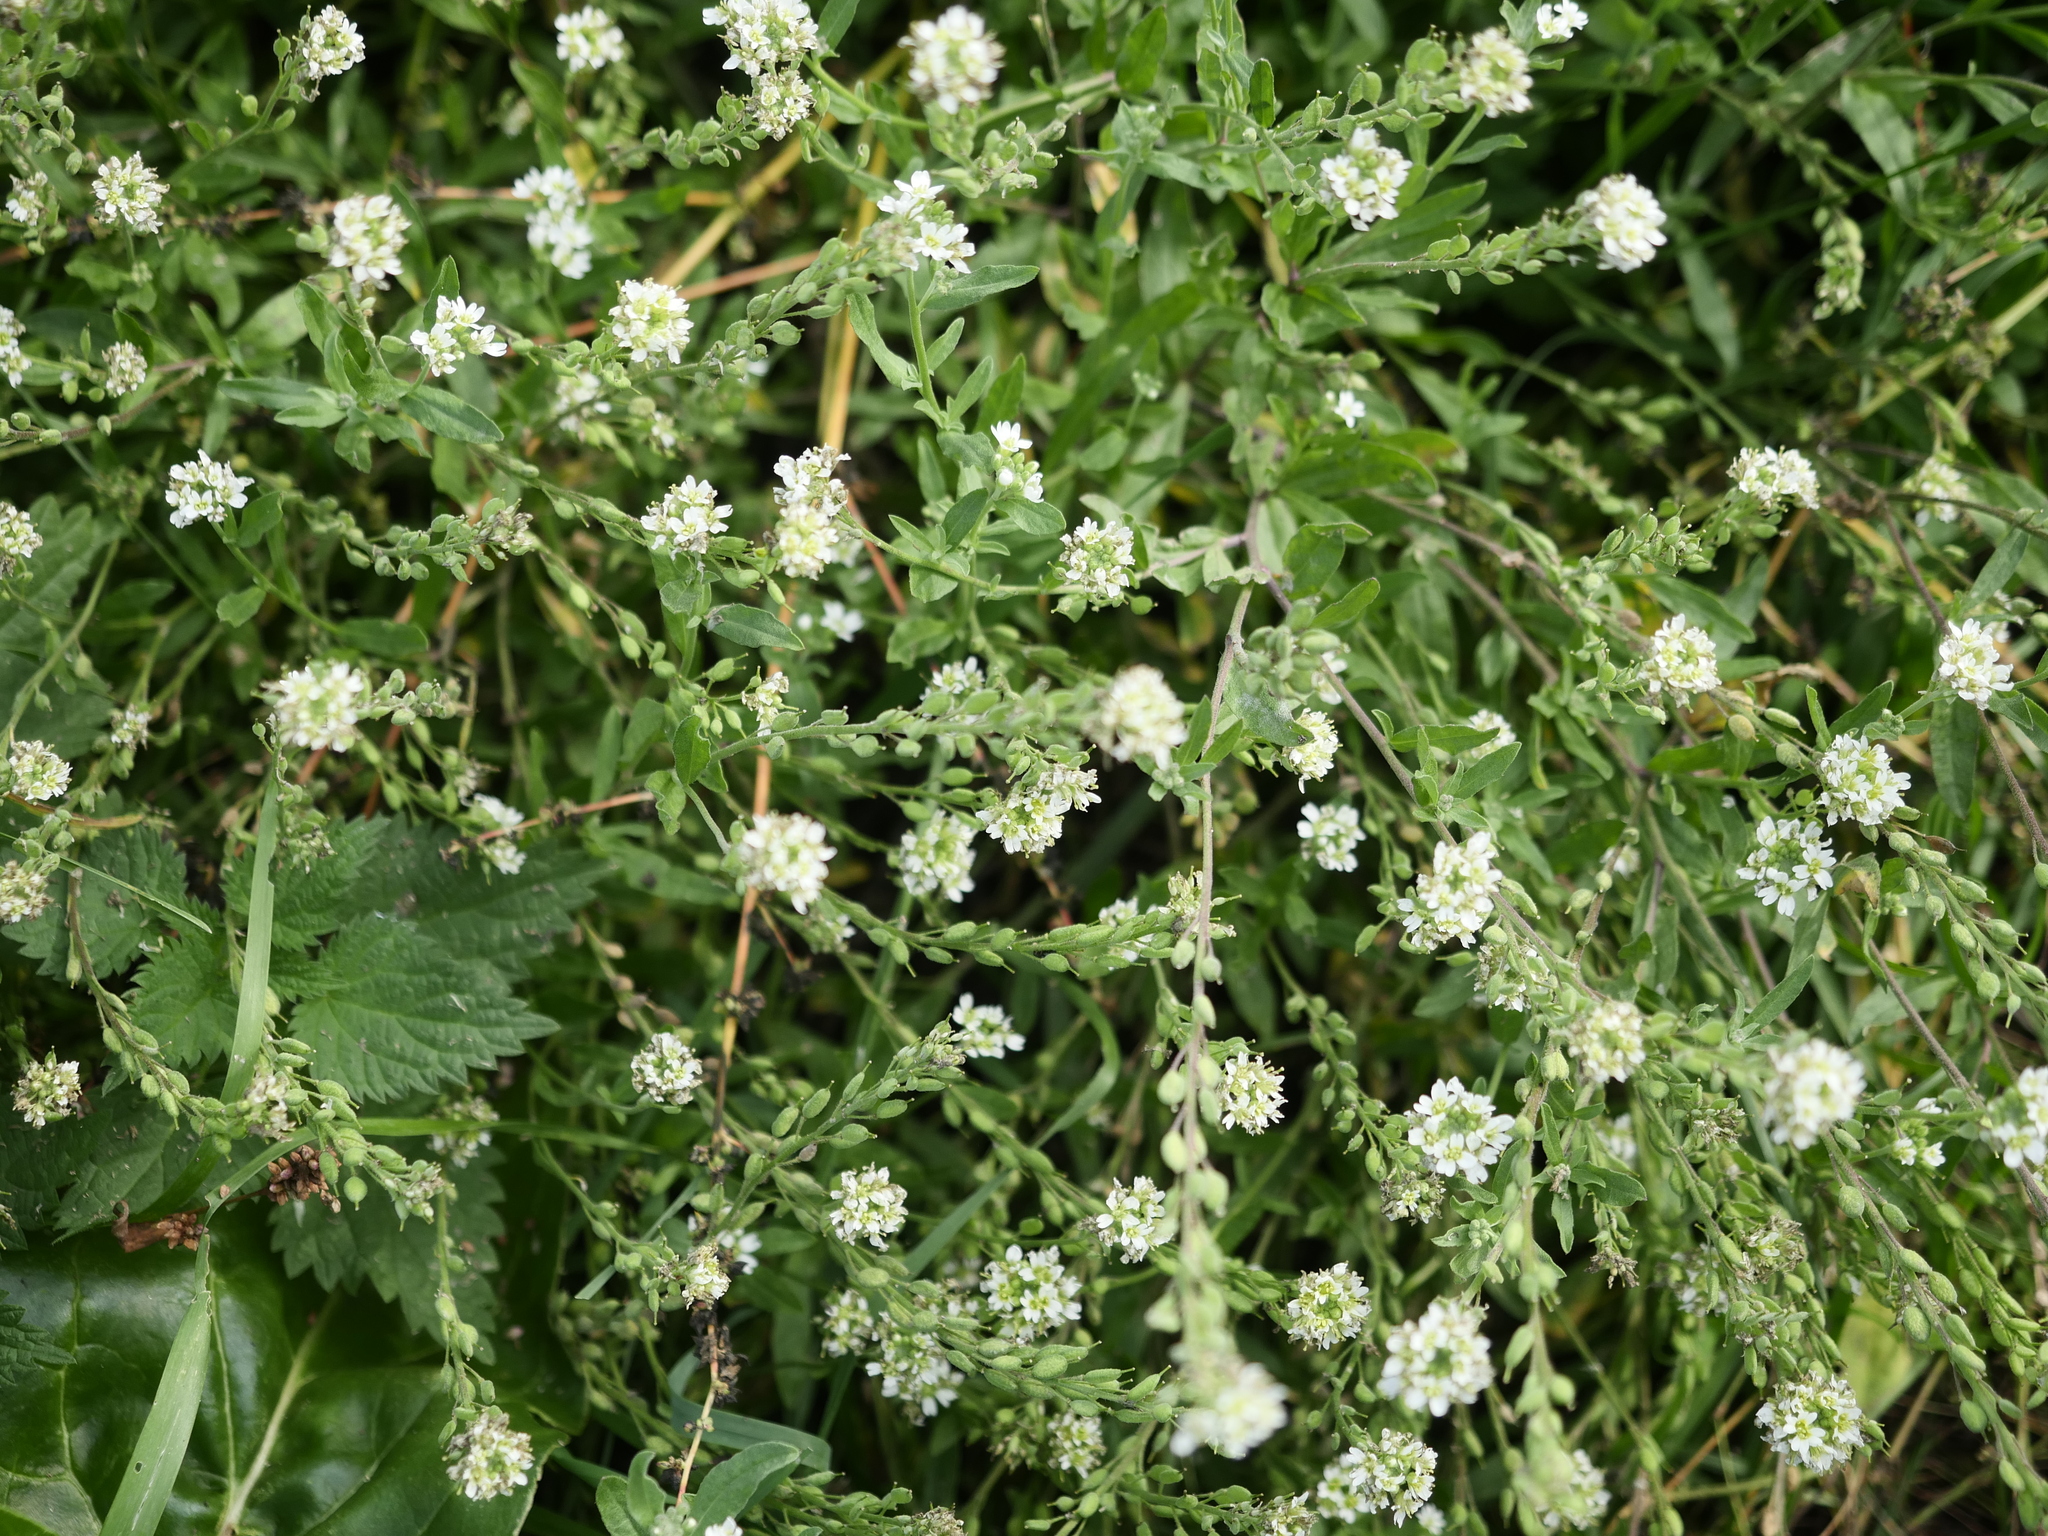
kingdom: Plantae
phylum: Tracheophyta
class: Magnoliopsida
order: Brassicales
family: Brassicaceae
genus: Berteroa
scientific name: Berteroa incana
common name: Hoary alison
